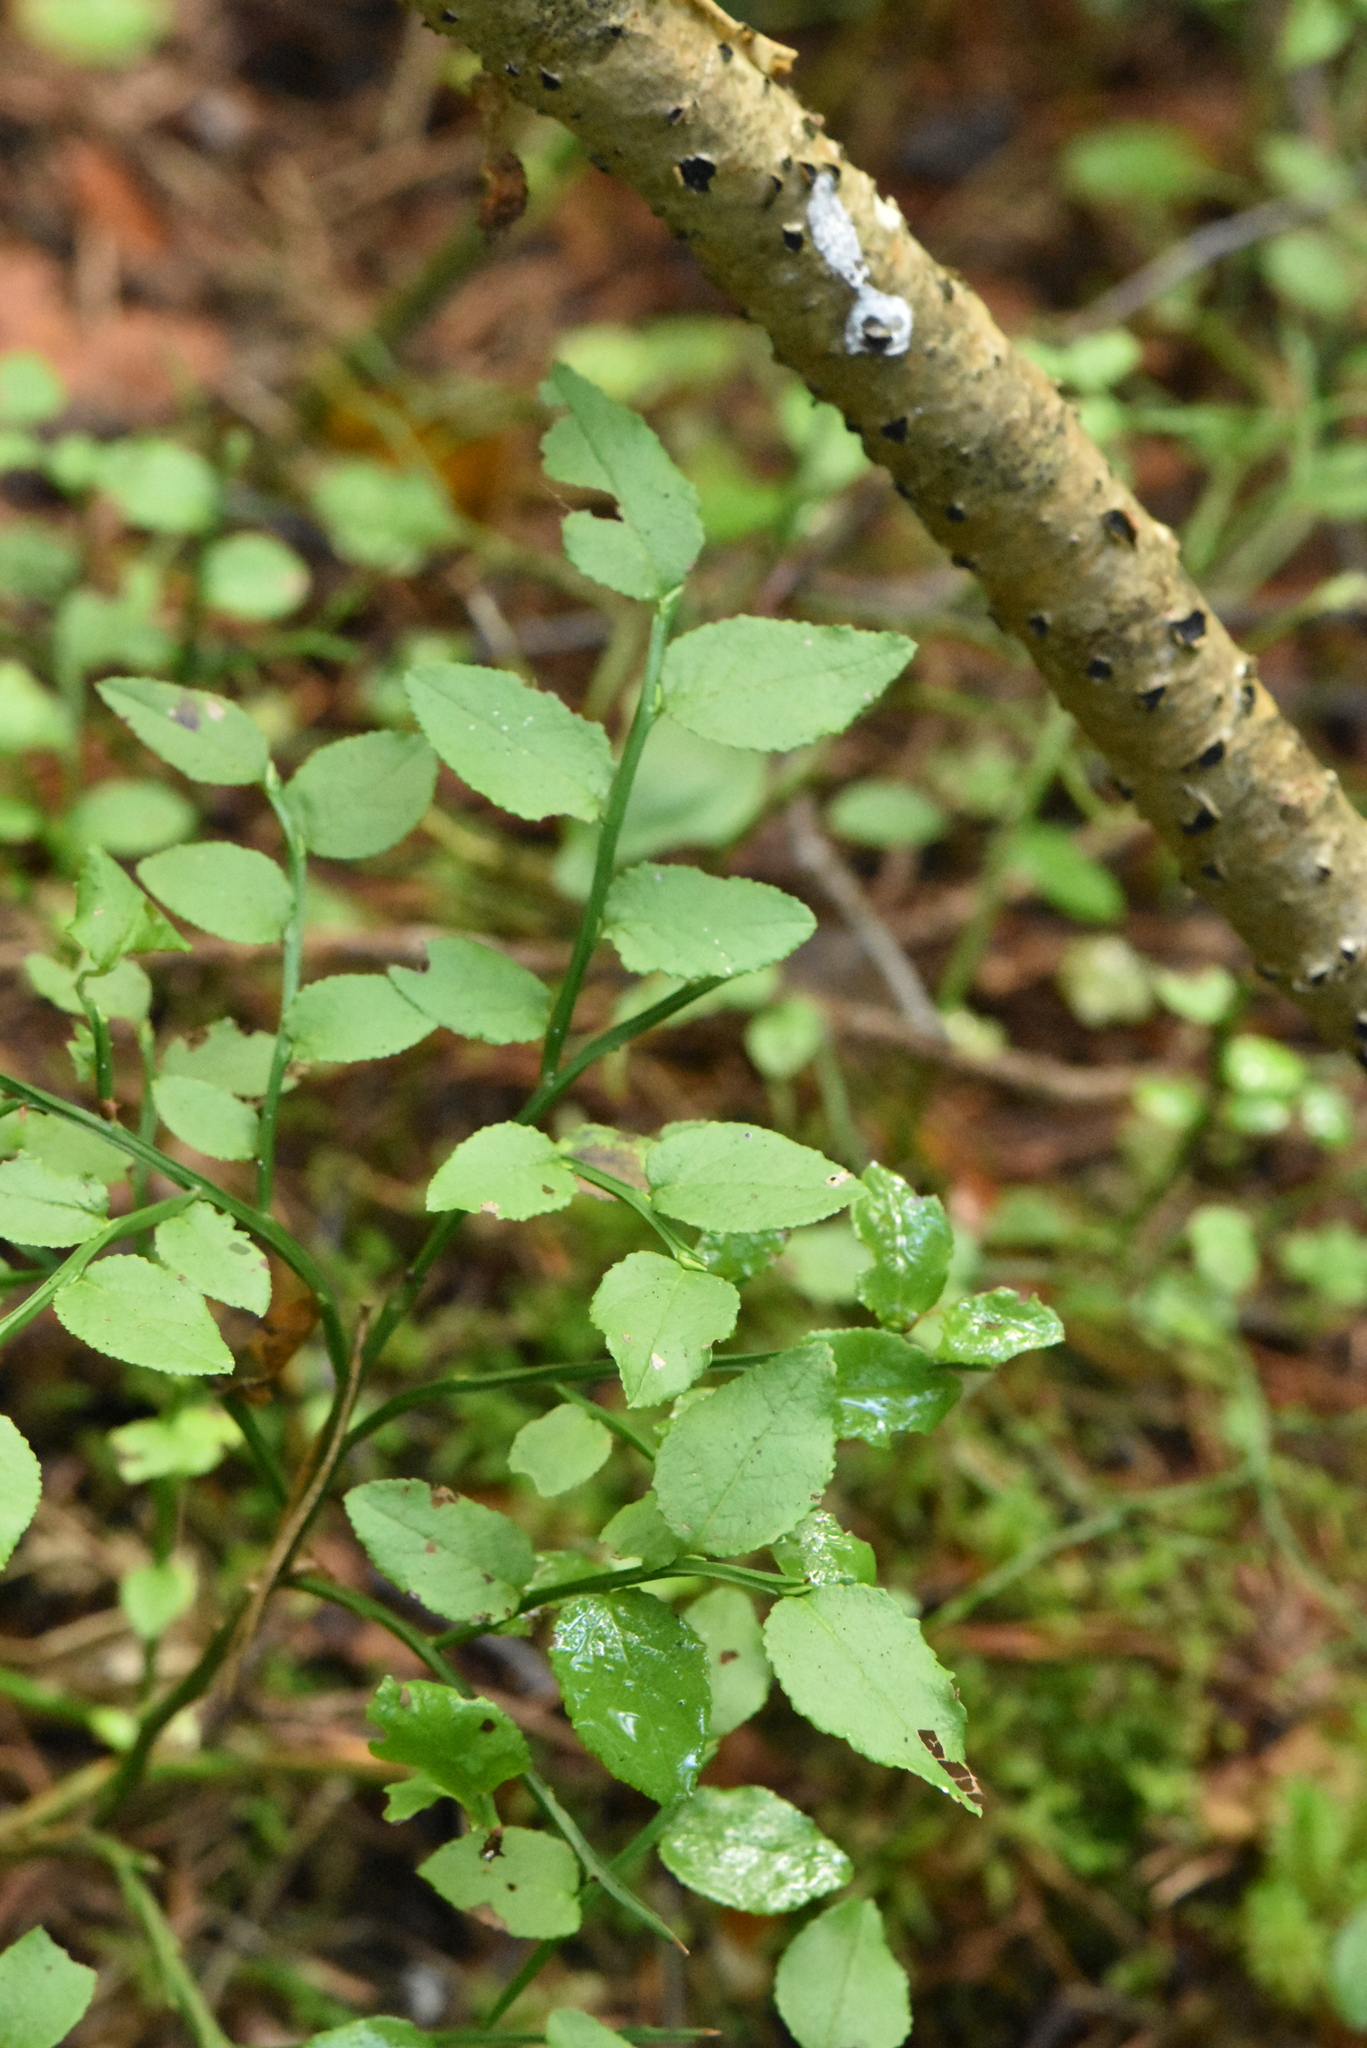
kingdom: Plantae
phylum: Tracheophyta
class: Magnoliopsida
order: Ericales
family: Ericaceae
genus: Vaccinium
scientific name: Vaccinium myrtillus
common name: Bilberry
